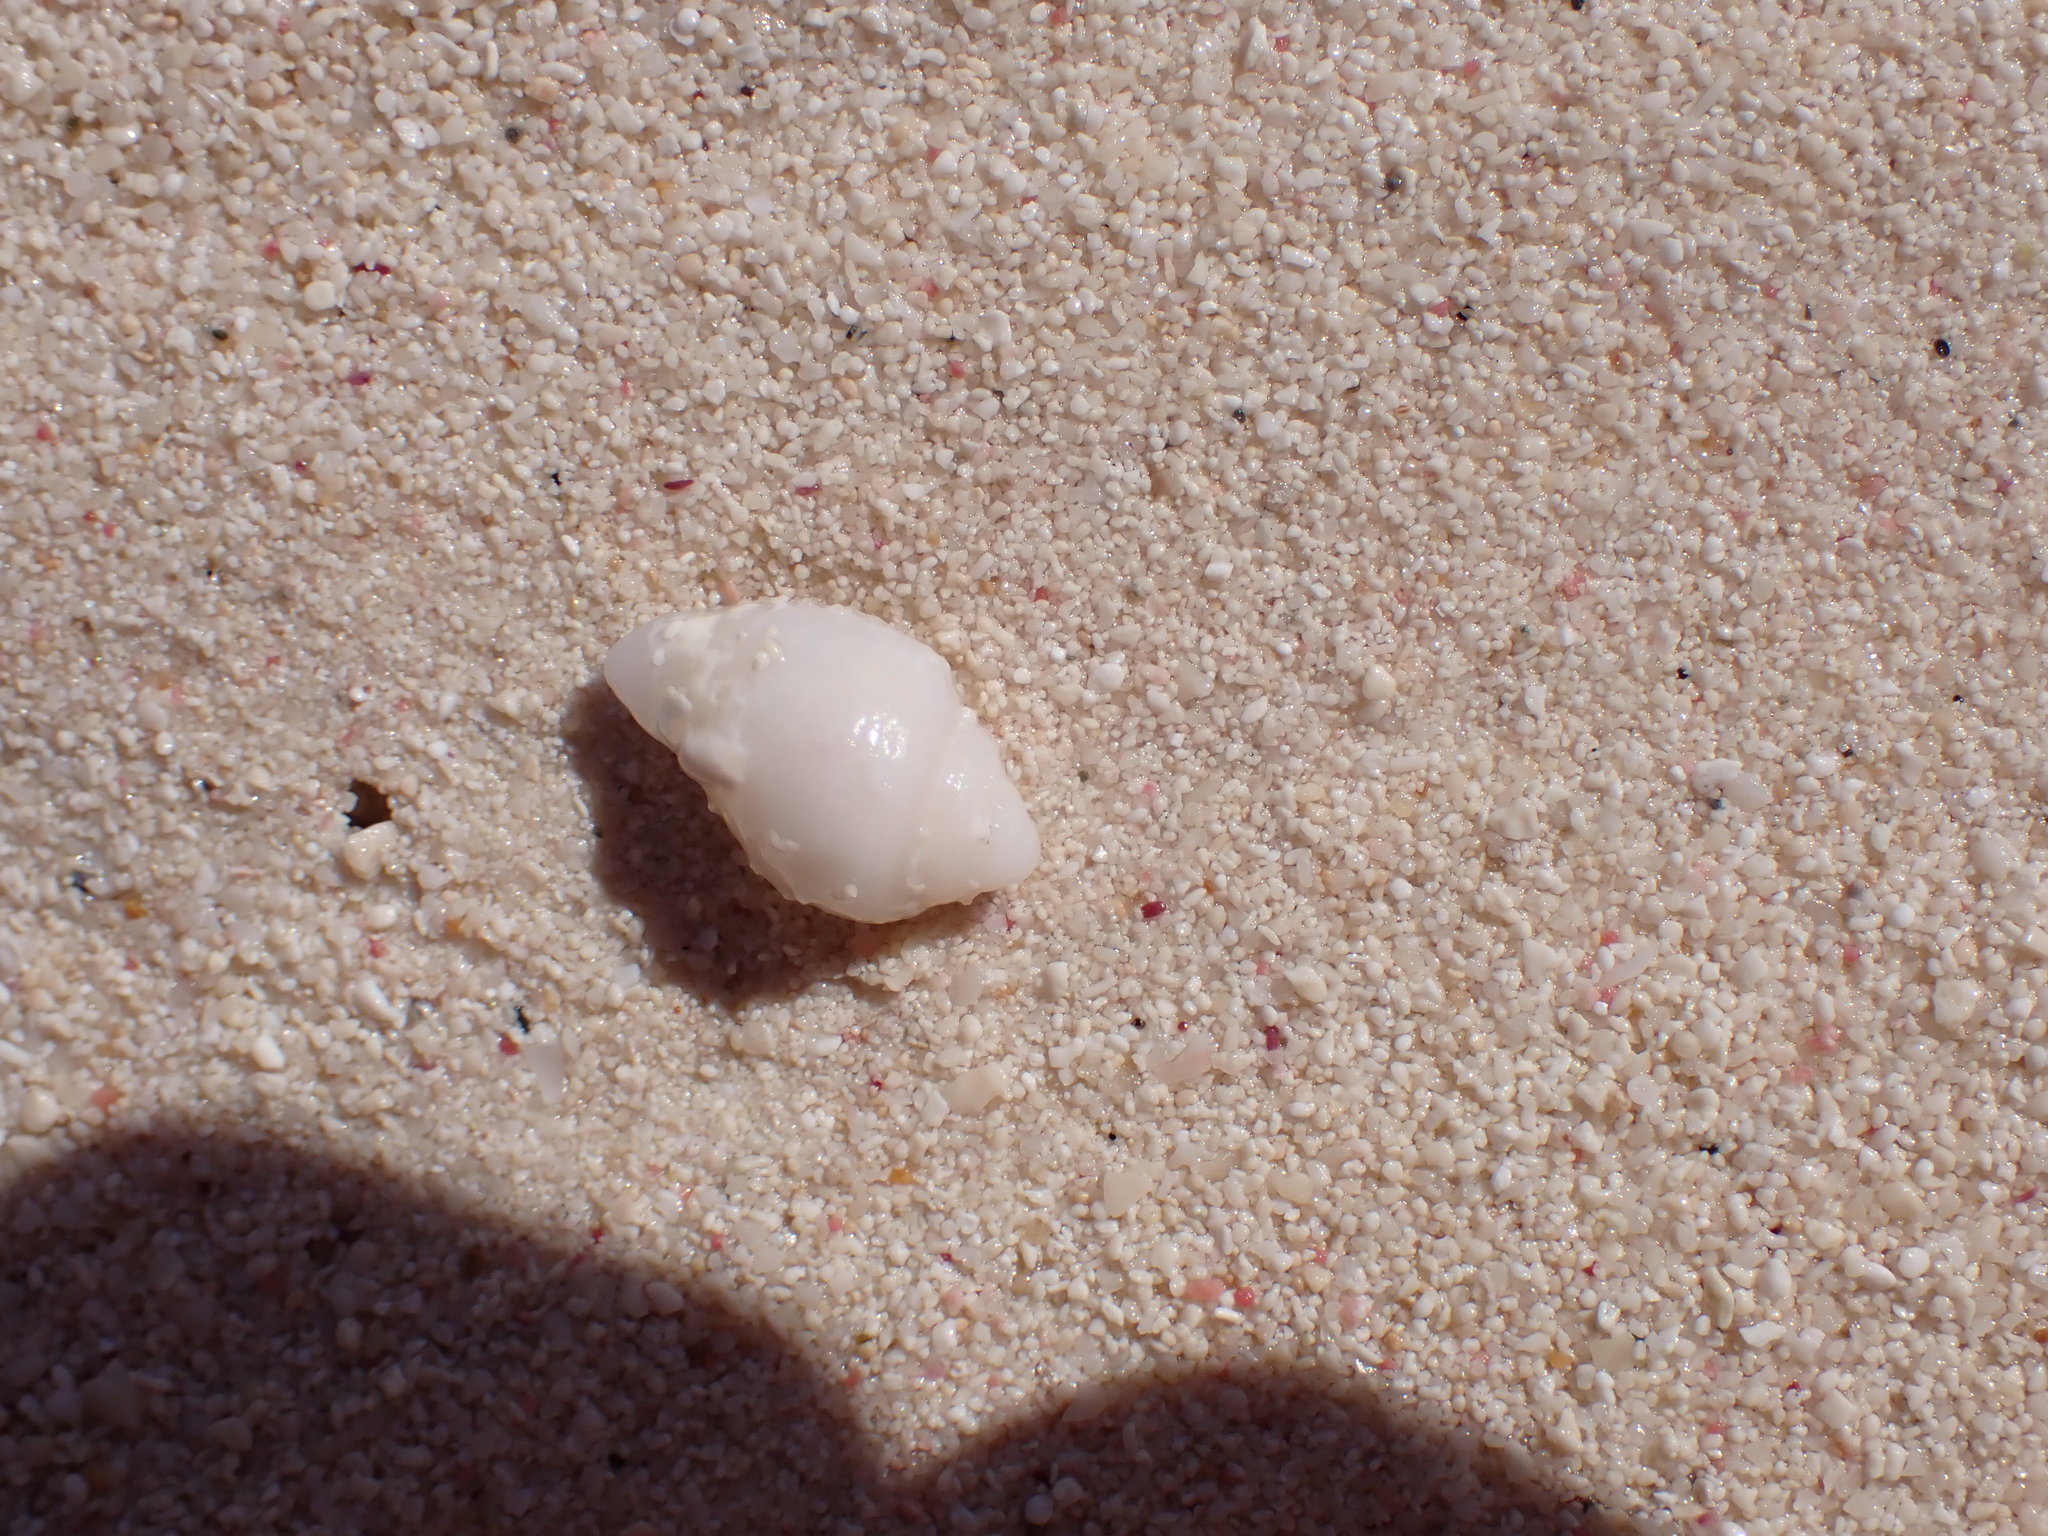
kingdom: Animalia
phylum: Mollusca
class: Gastropoda
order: Neogastropoda
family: Columbellidae
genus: Columbella
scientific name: Columbella mercatoria
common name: West indian dovesnail
